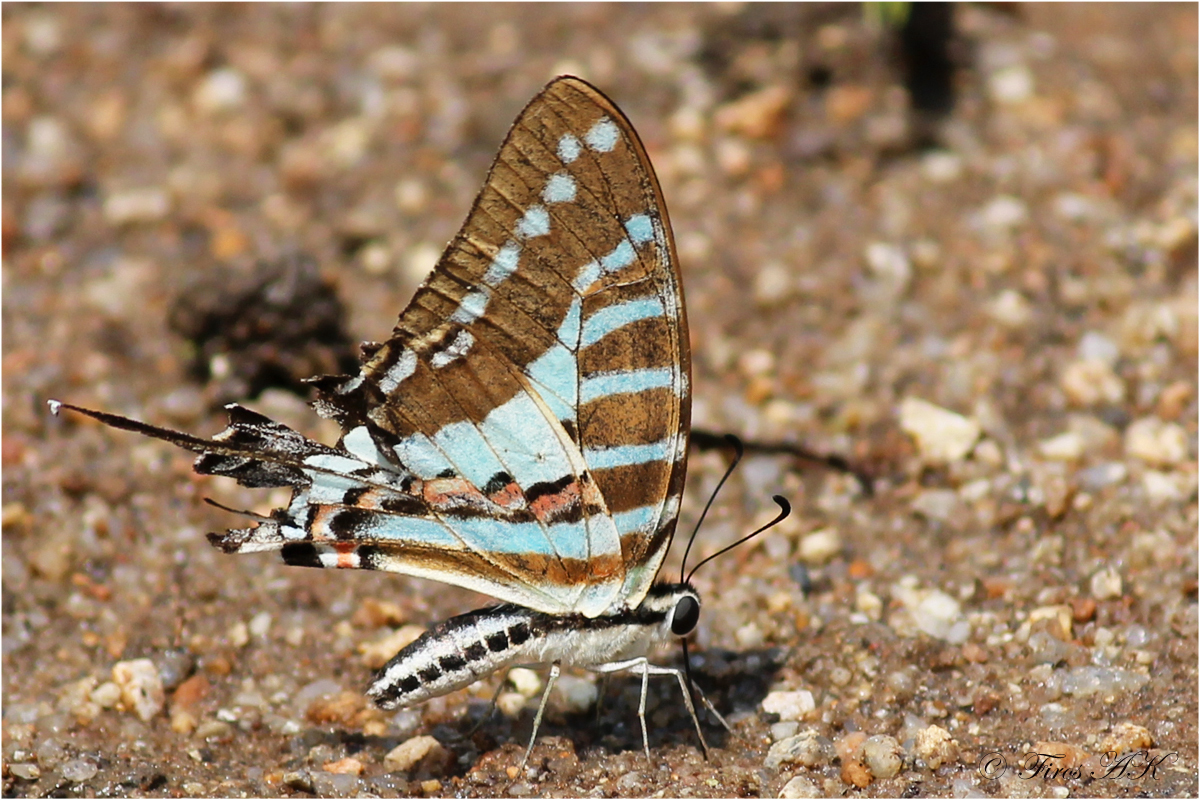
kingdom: Animalia
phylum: Arthropoda
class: Insecta
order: Lepidoptera
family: Papilionidae
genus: Graphium
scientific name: Graphium nomius
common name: Spot swordtail
